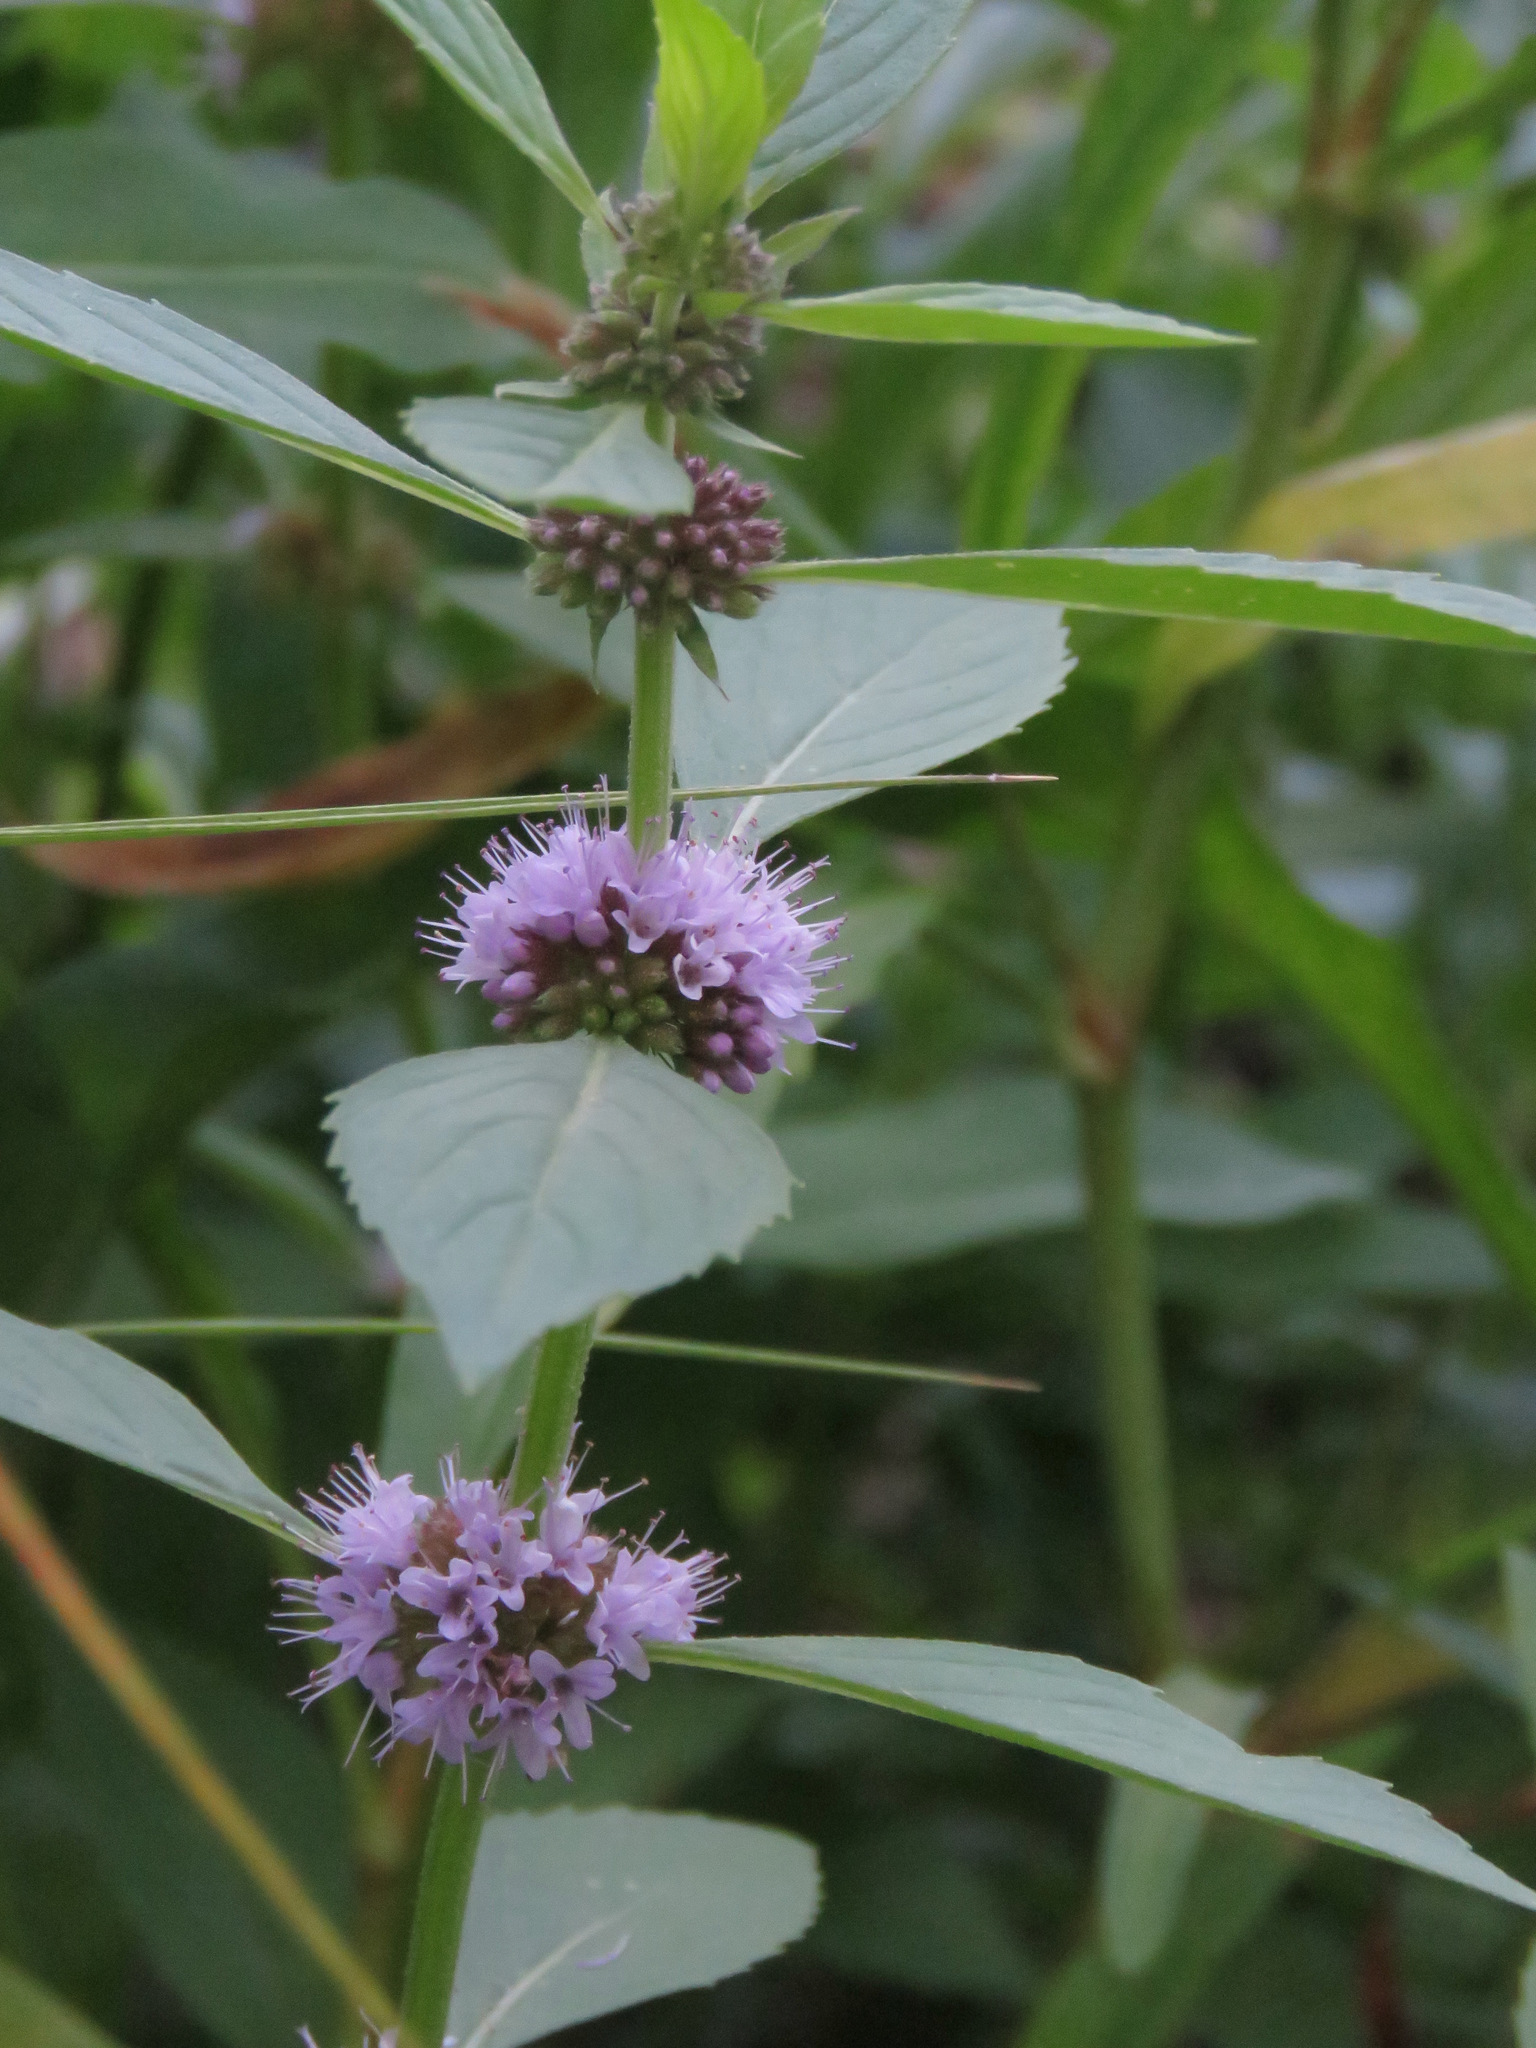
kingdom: Plantae
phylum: Tracheophyta
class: Magnoliopsida
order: Lamiales
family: Lamiaceae
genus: Mentha
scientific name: Mentha canadensis
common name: American corn mint
